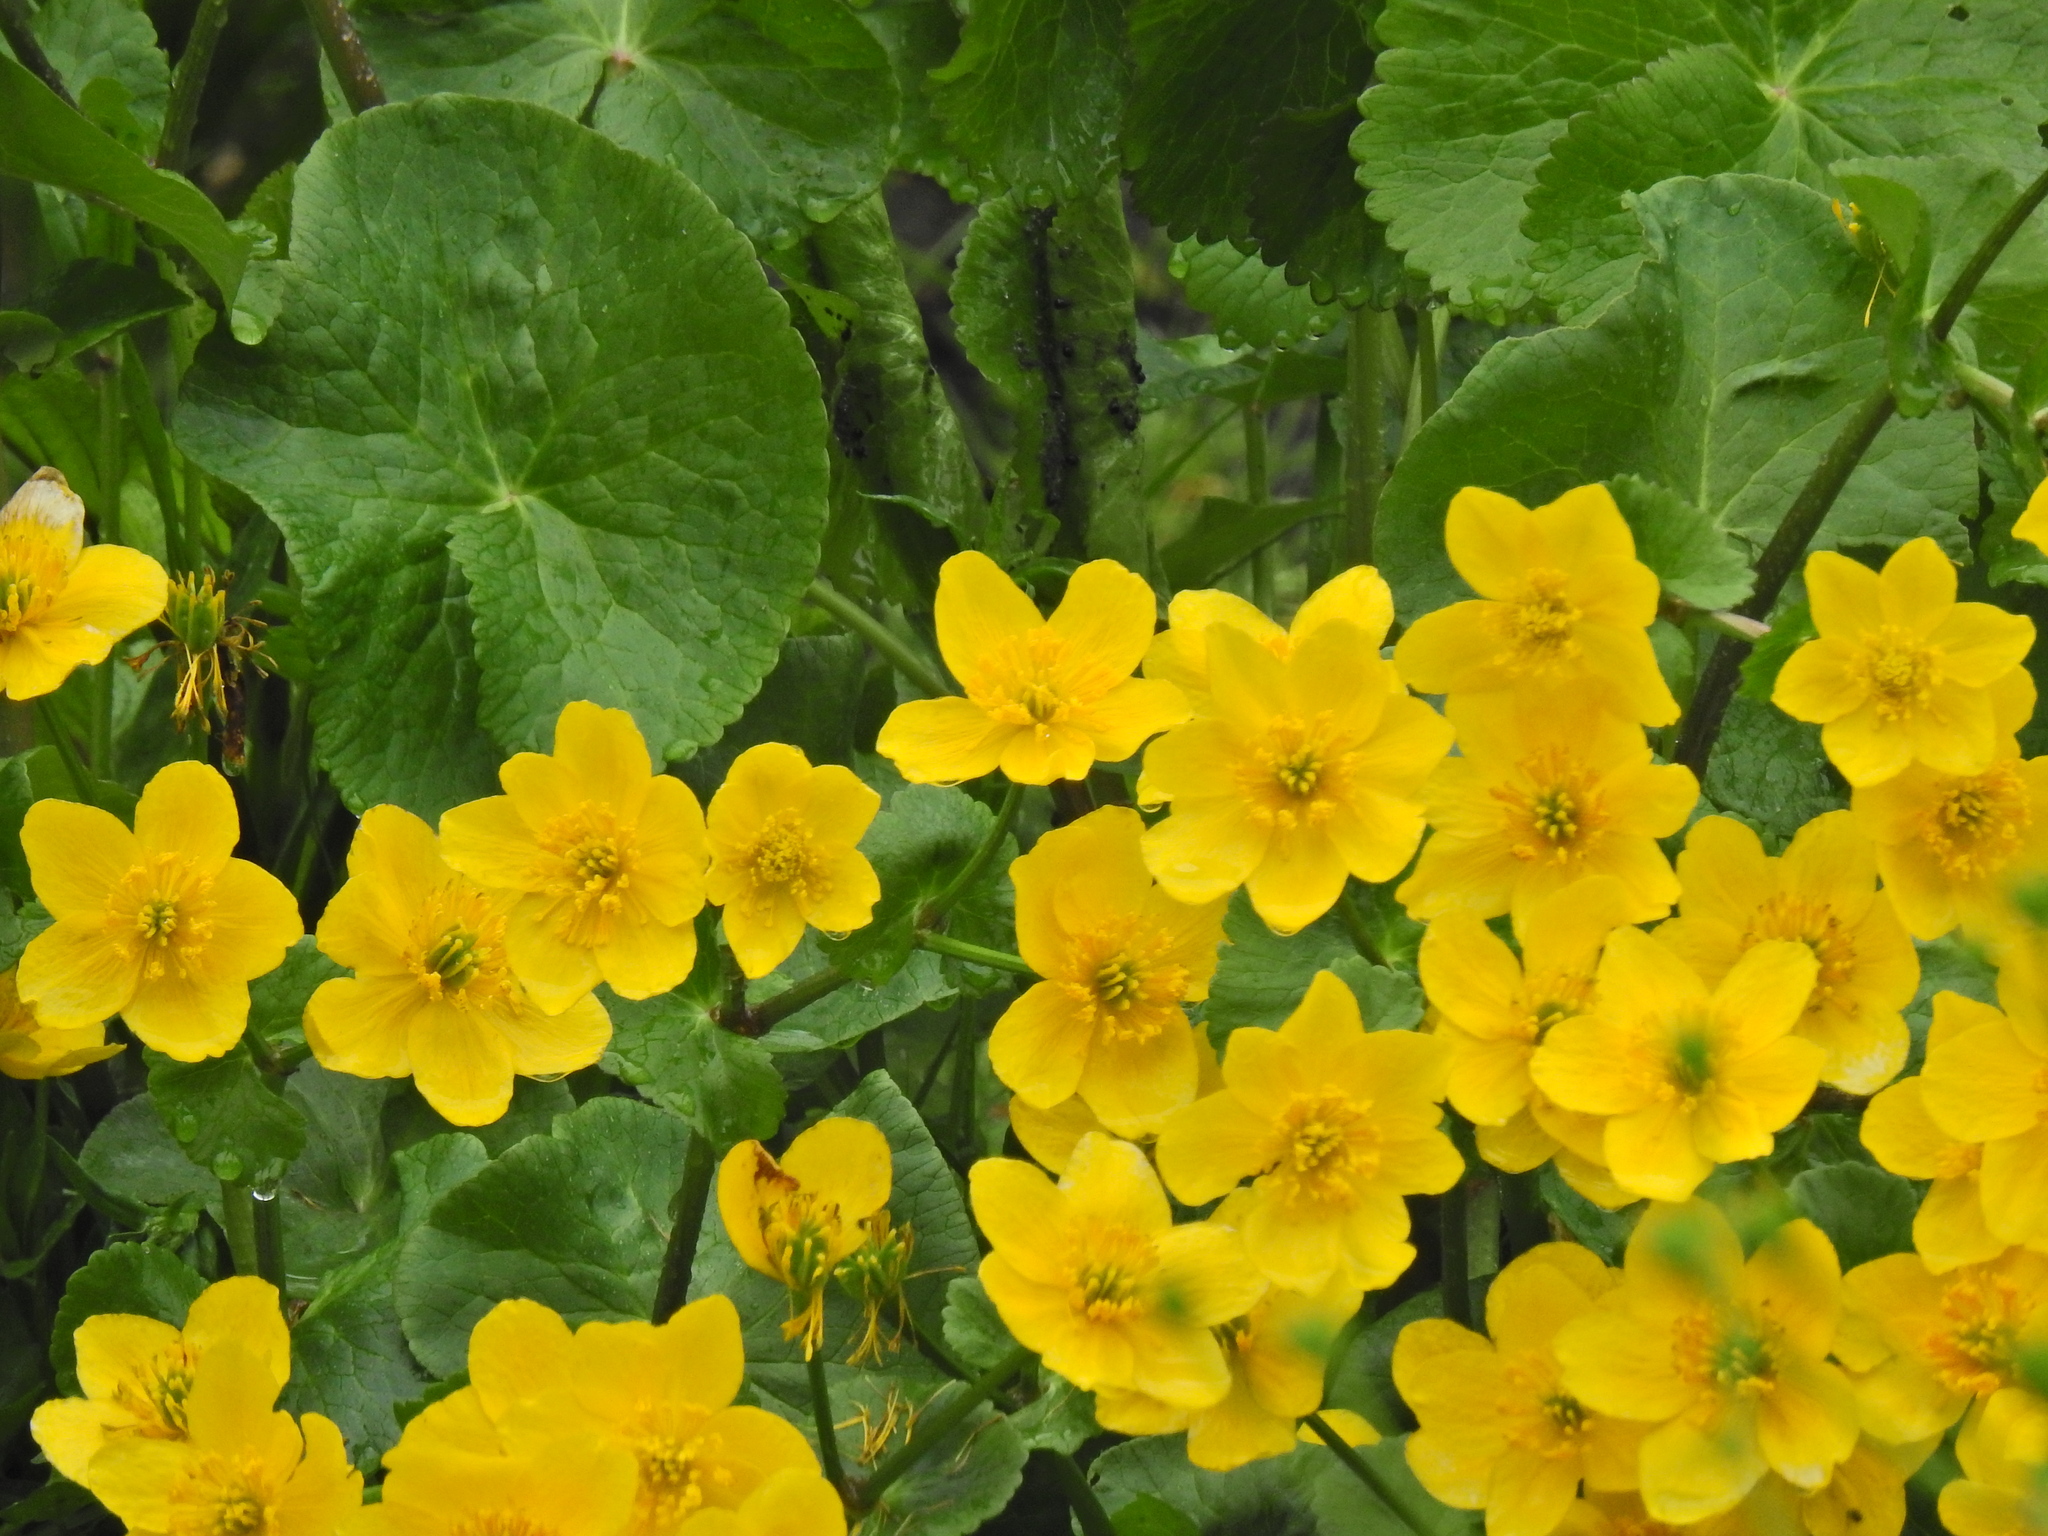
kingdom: Plantae
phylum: Tracheophyta
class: Magnoliopsida
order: Ranunculales
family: Ranunculaceae
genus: Caltha
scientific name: Caltha palustris
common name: Marsh marigold
